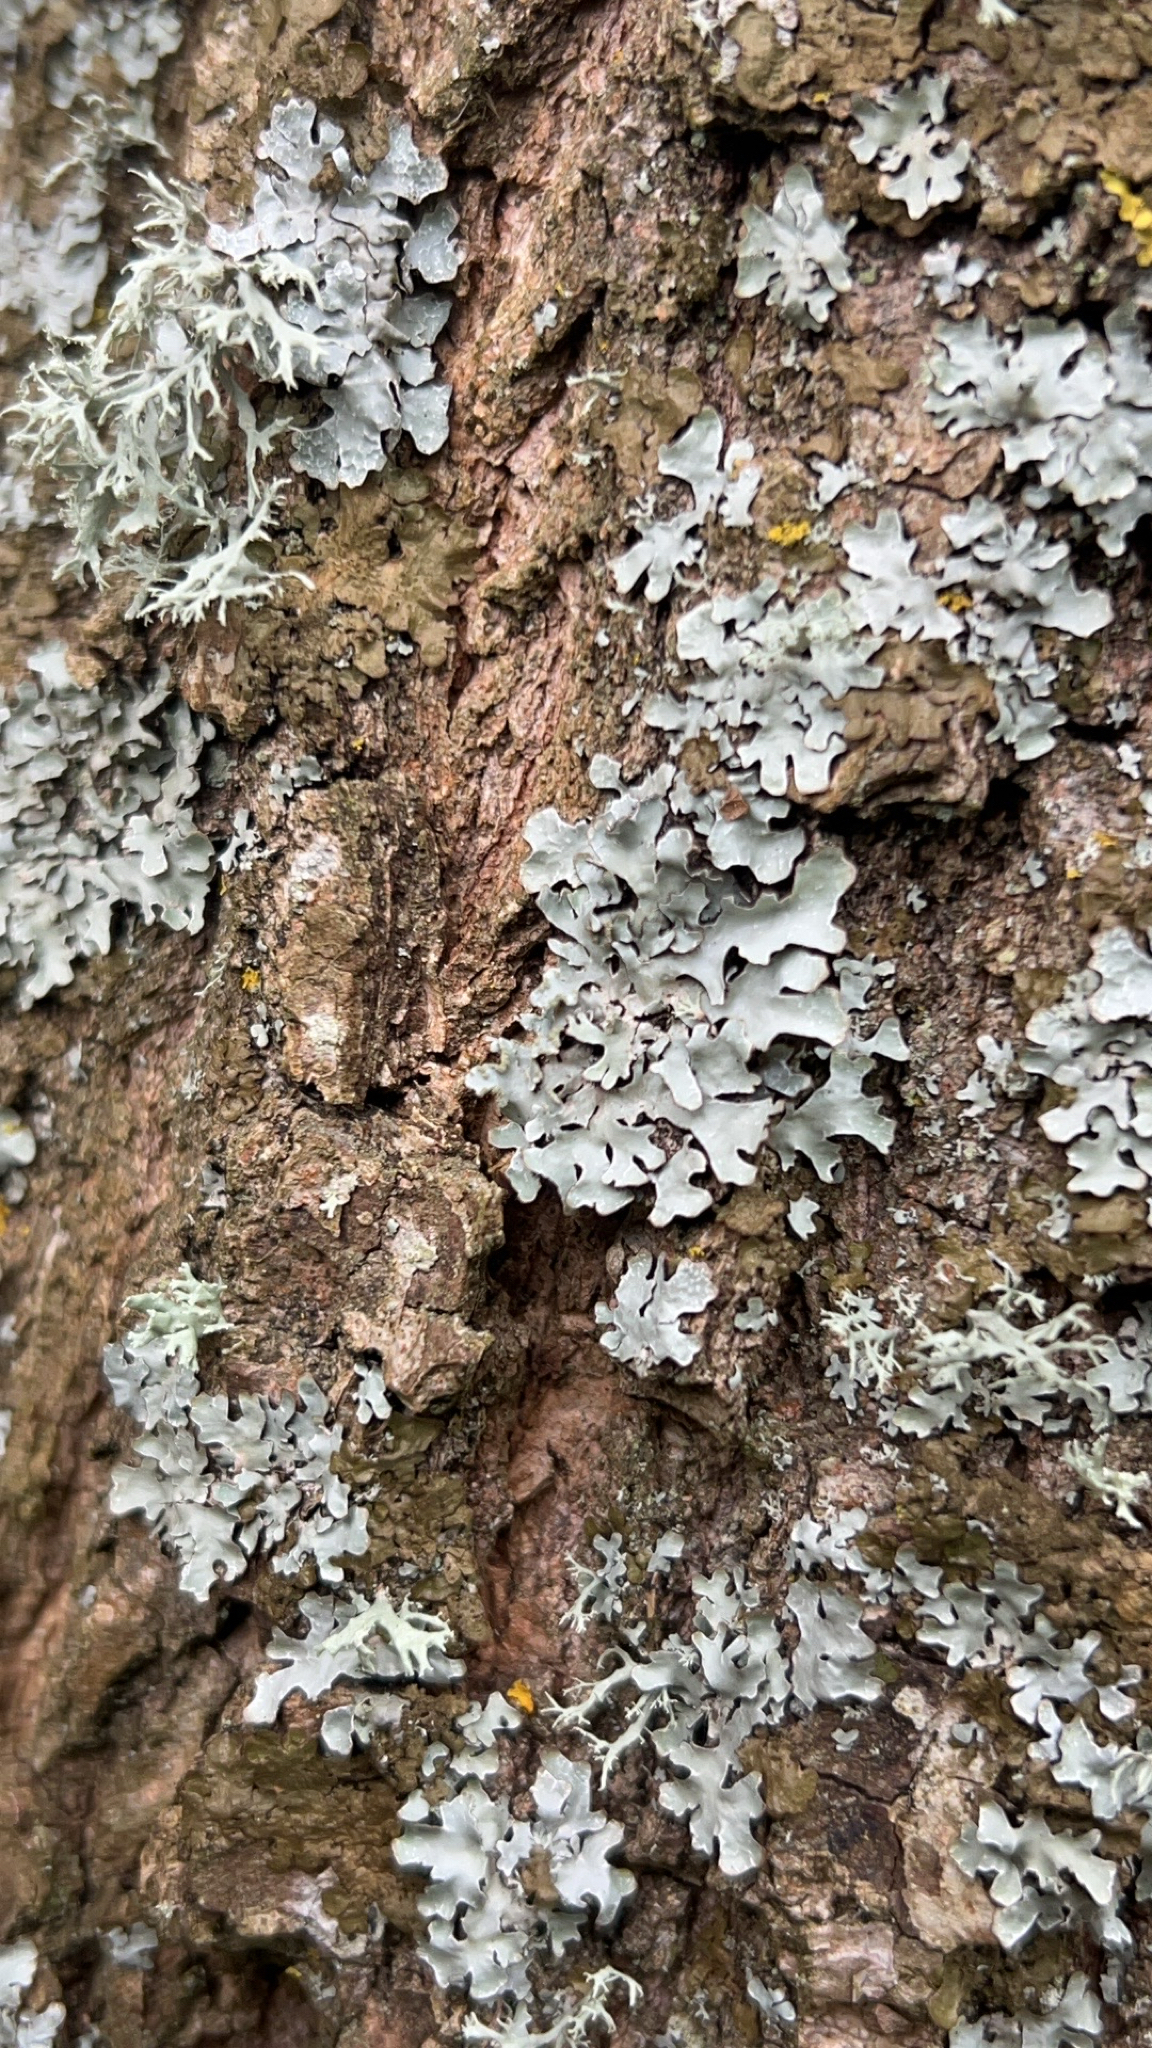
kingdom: Fungi
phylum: Ascomycota
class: Lecanoromycetes
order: Lecanorales
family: Parmeliaceae
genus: Parmelia
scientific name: Parmelia sulcata
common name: Netted shield lichen
